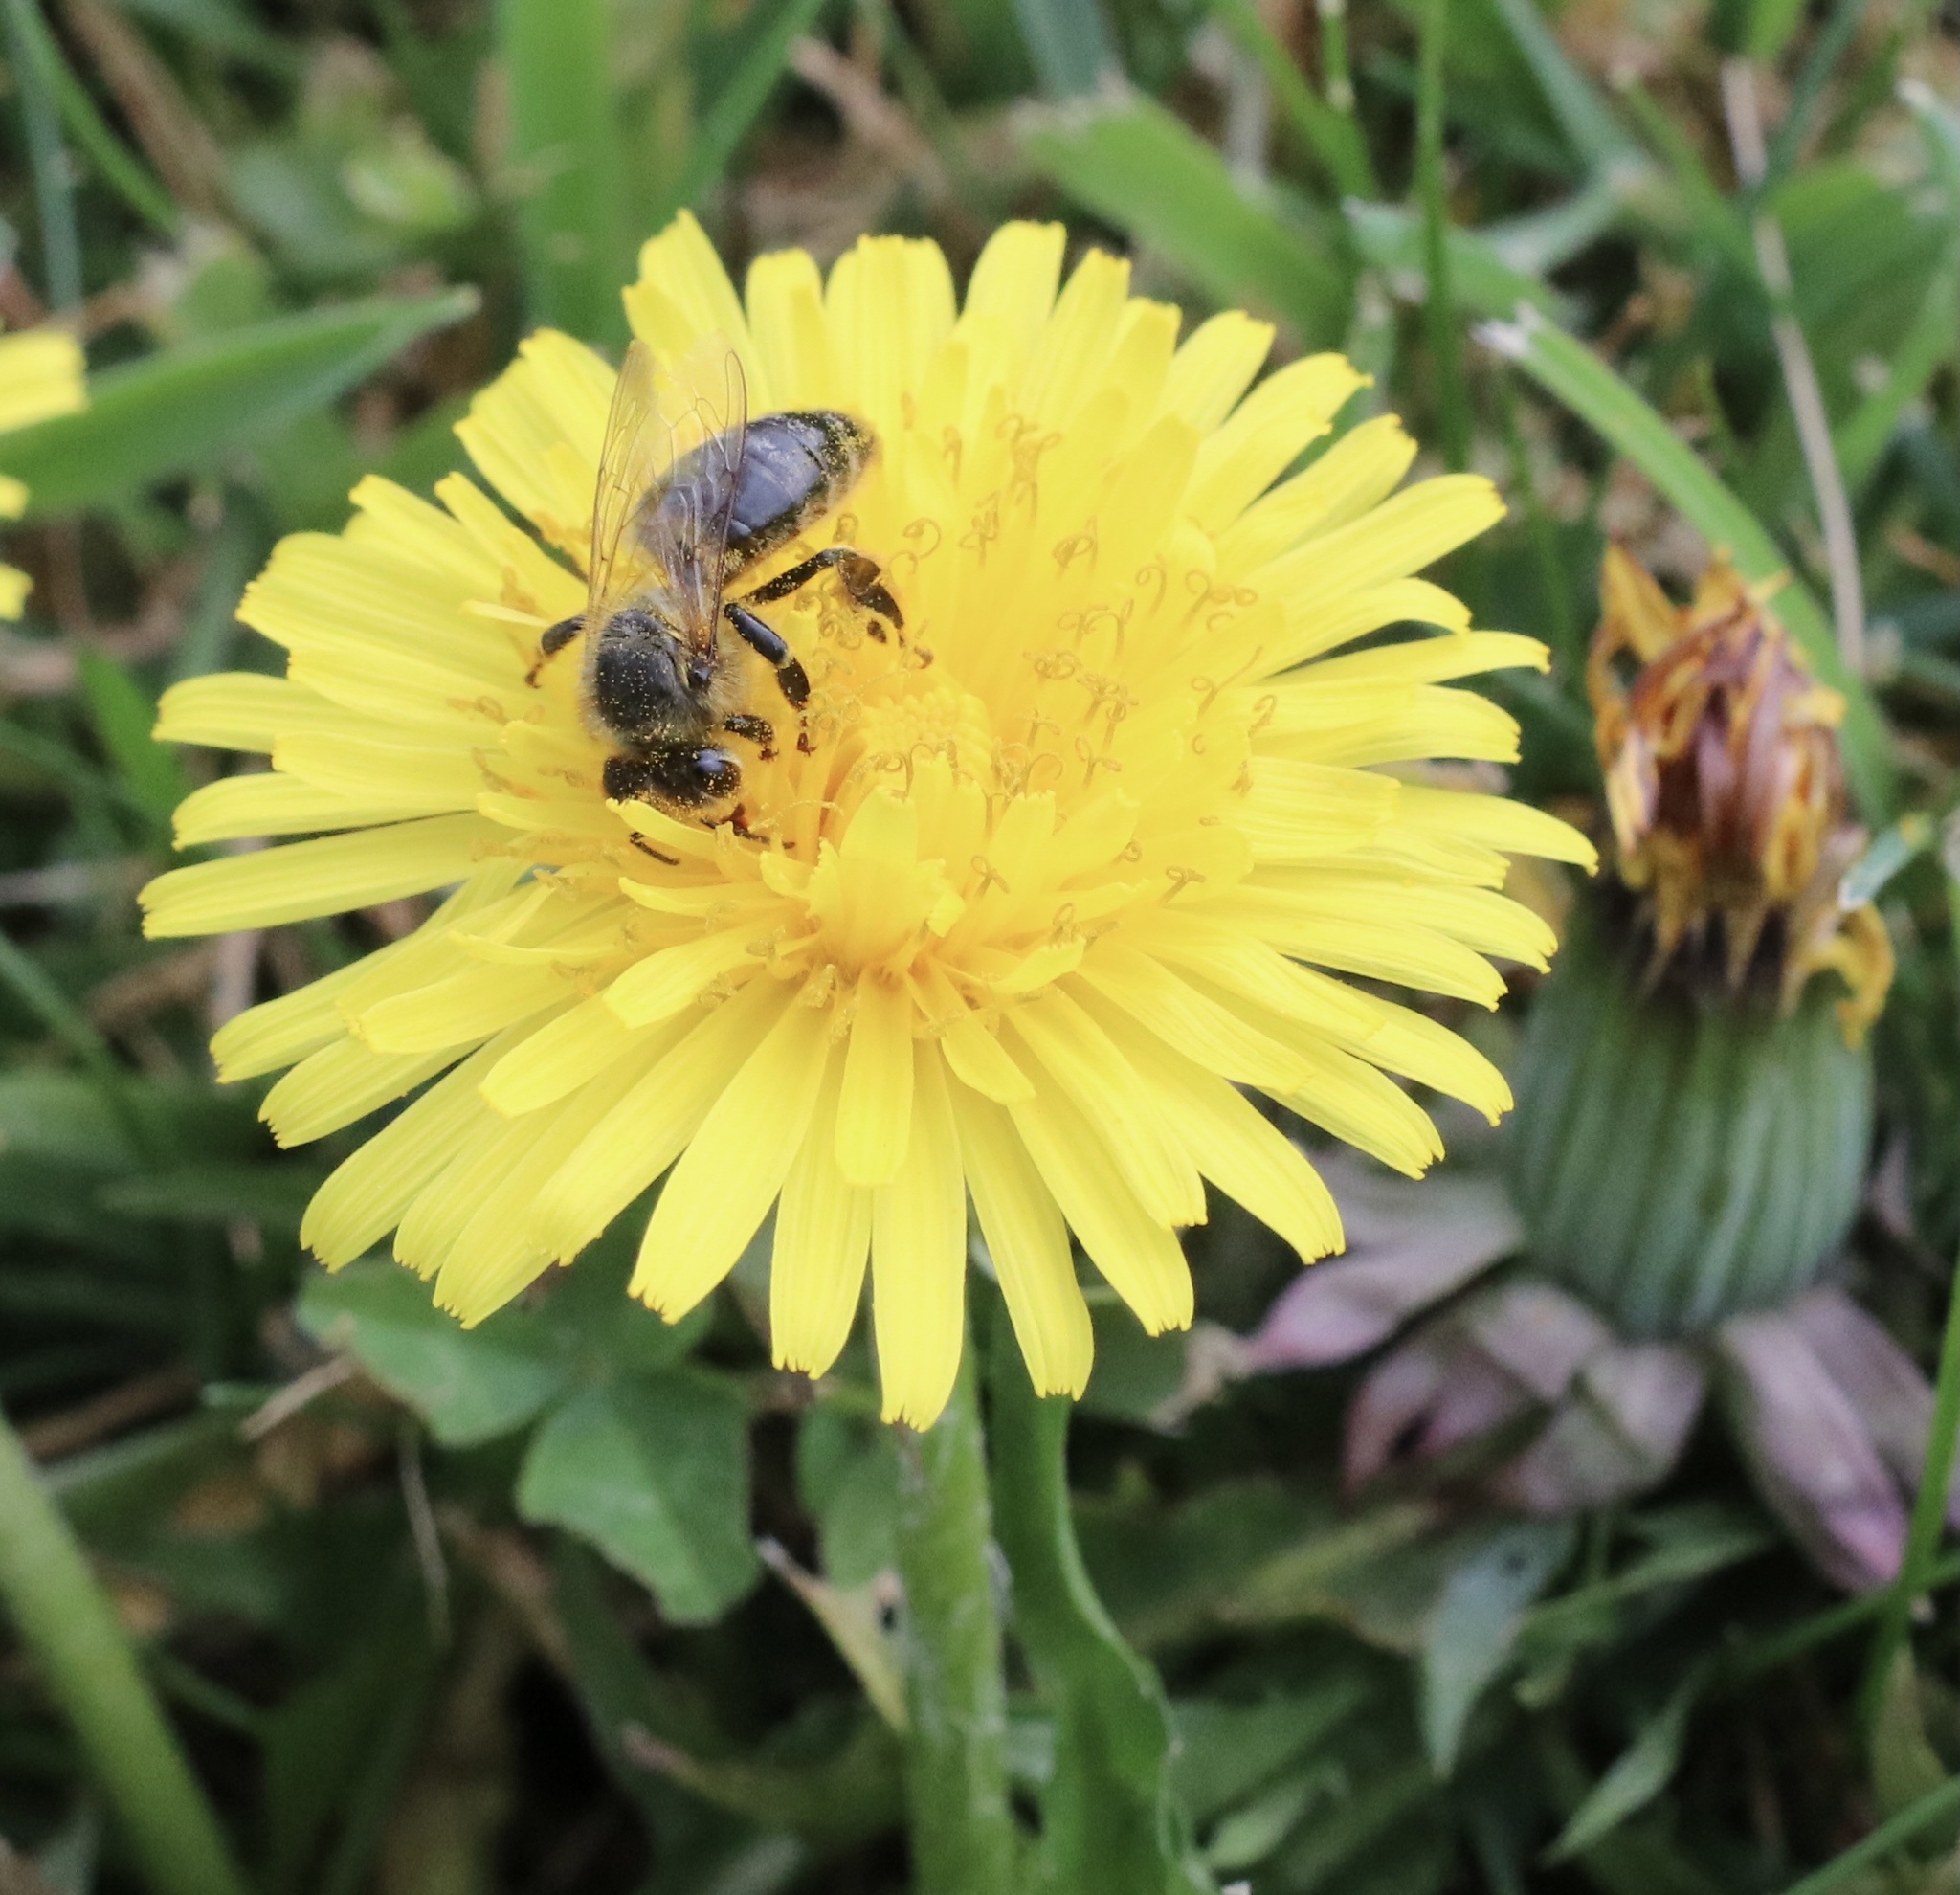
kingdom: Animalia
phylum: Arthropoda
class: Insecta
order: Hymenoptera
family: Apidae
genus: Apis
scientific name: Apis mellifera
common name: Honey bee
